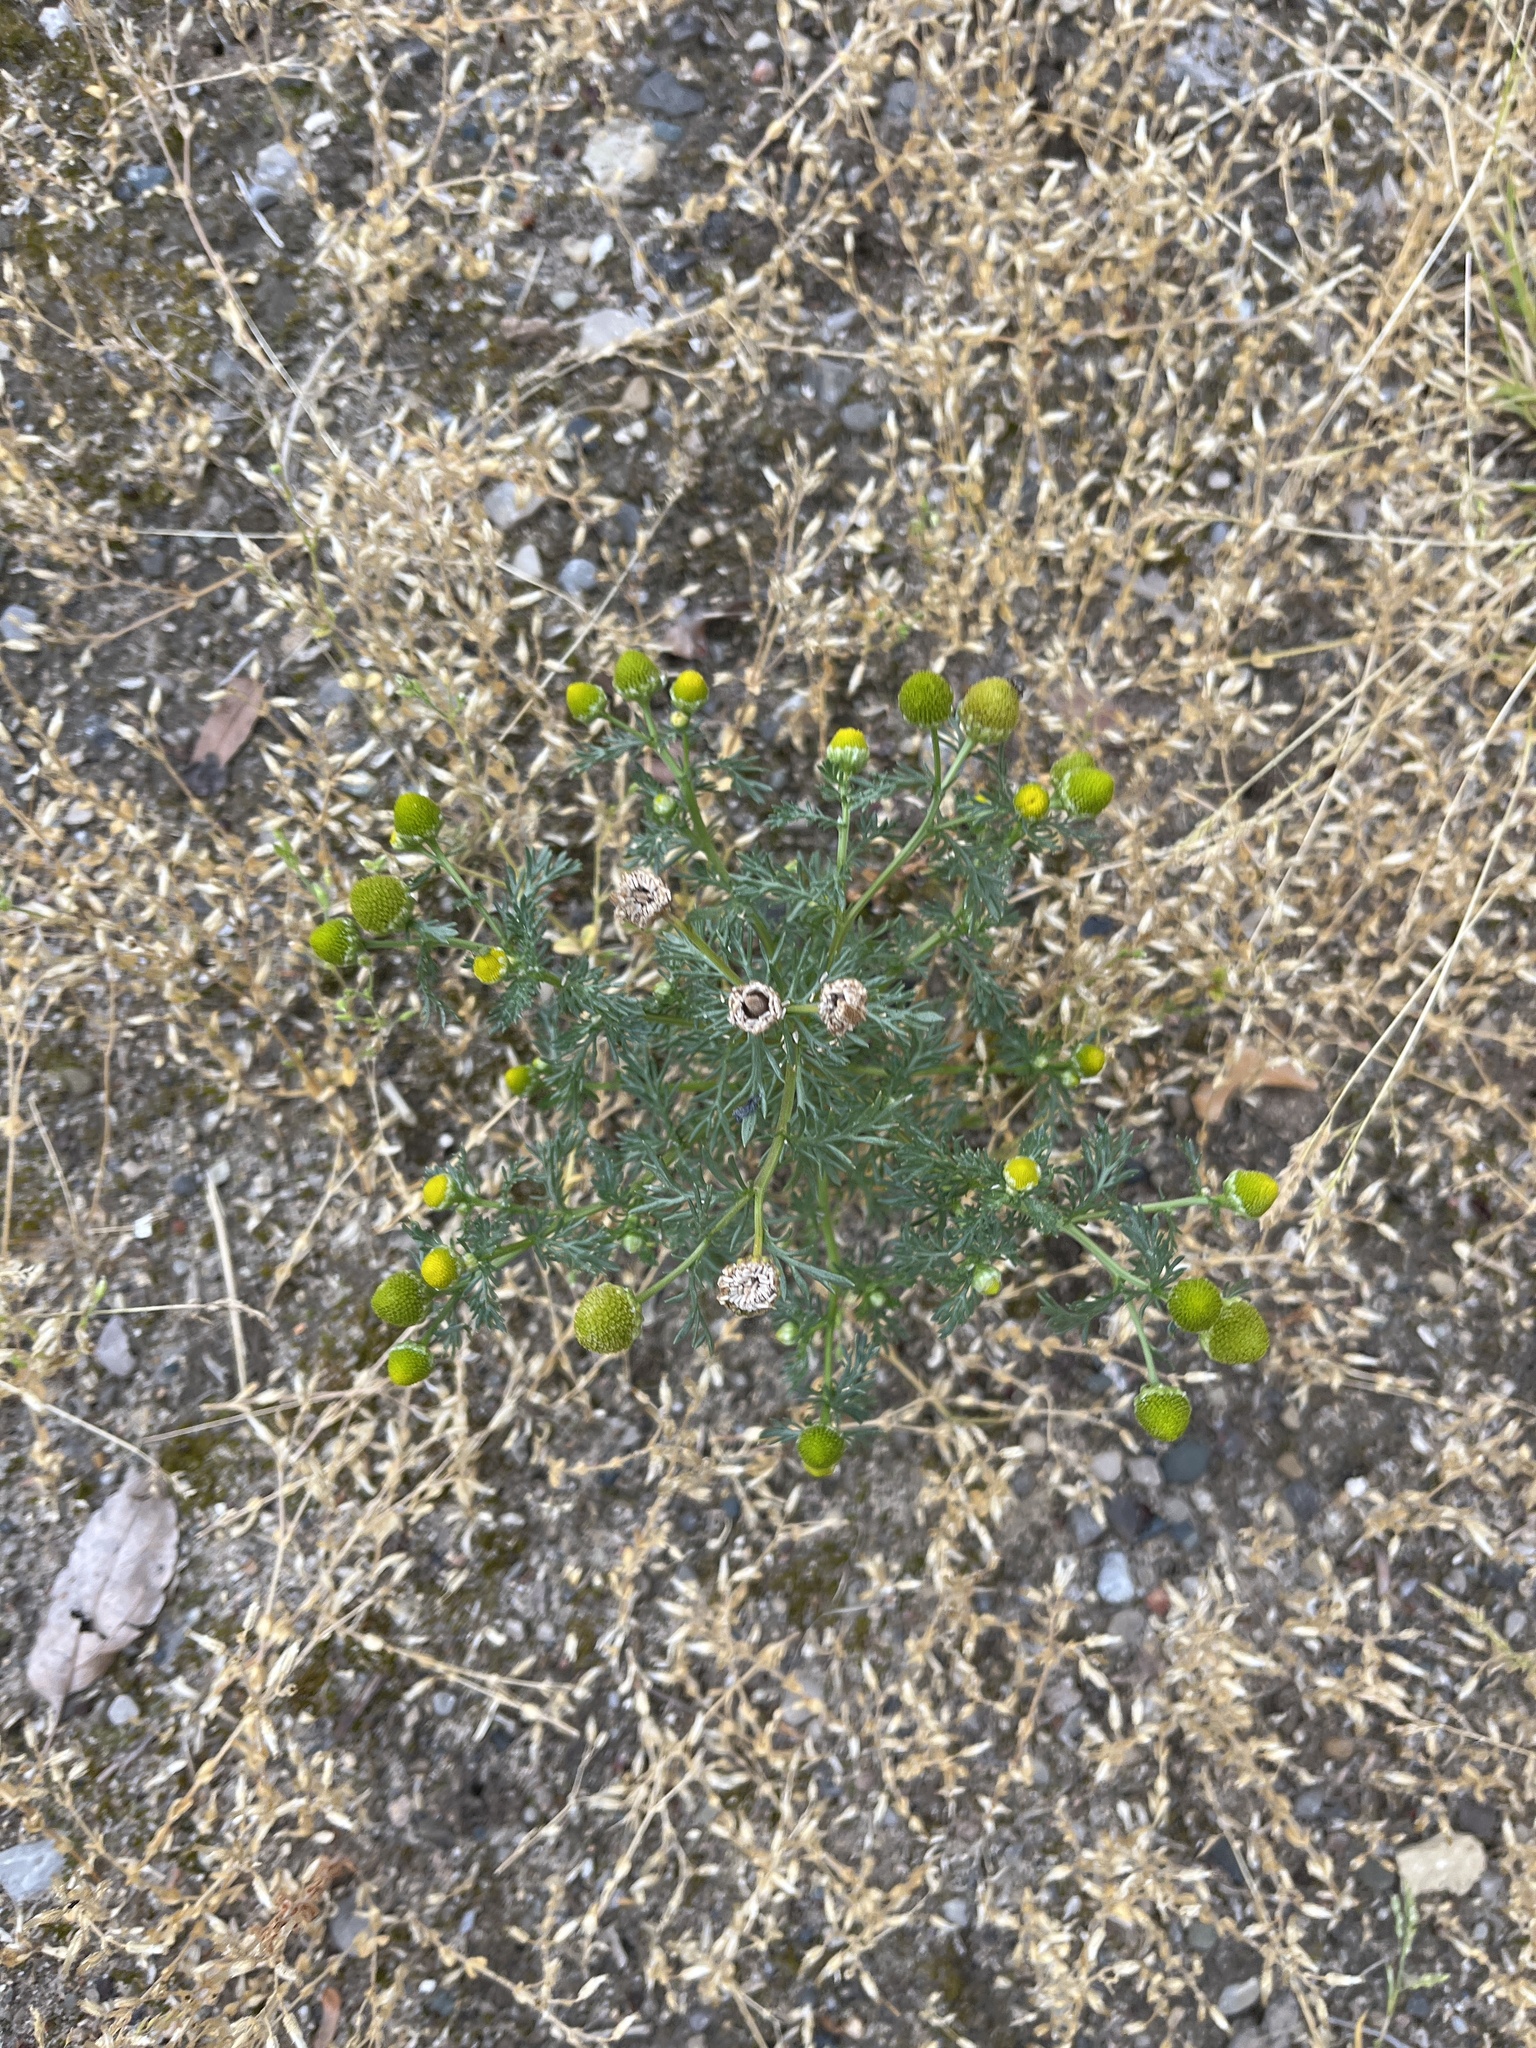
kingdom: Plantae
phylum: Tracheophyta
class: Magnoliopsida
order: Asterales
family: Asteraceae
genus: Matricaria
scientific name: Matricaria discoidea
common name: Disc mayweed
